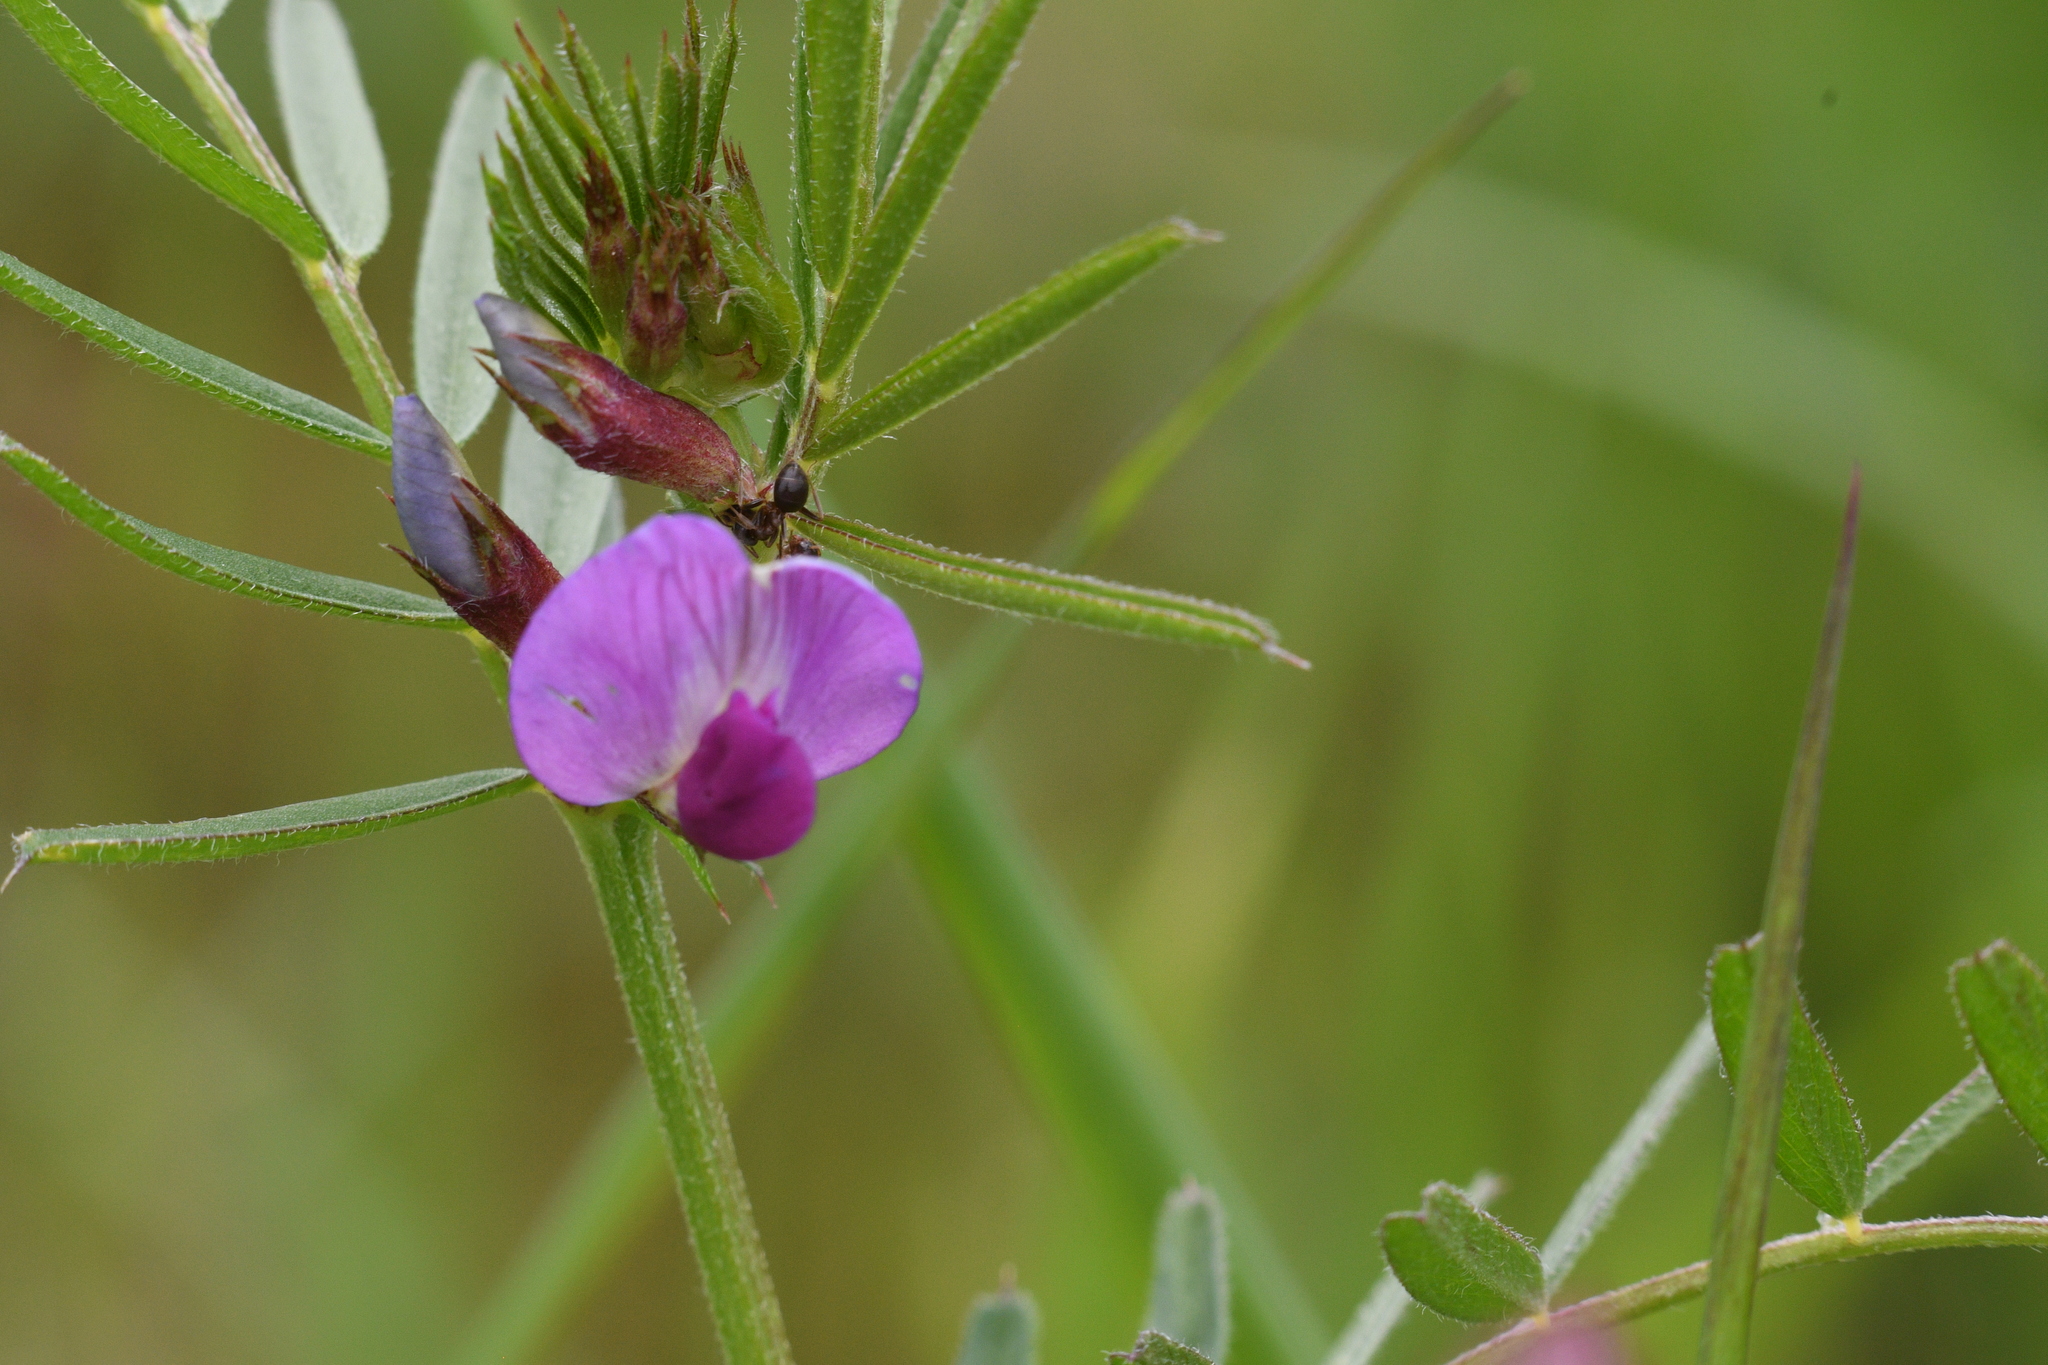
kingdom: Plantae
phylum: Tracheophyta
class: Magnoliopsida
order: Fabales
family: Fabaceae
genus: Vicia
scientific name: Vicia sativa
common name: Garden vetch
